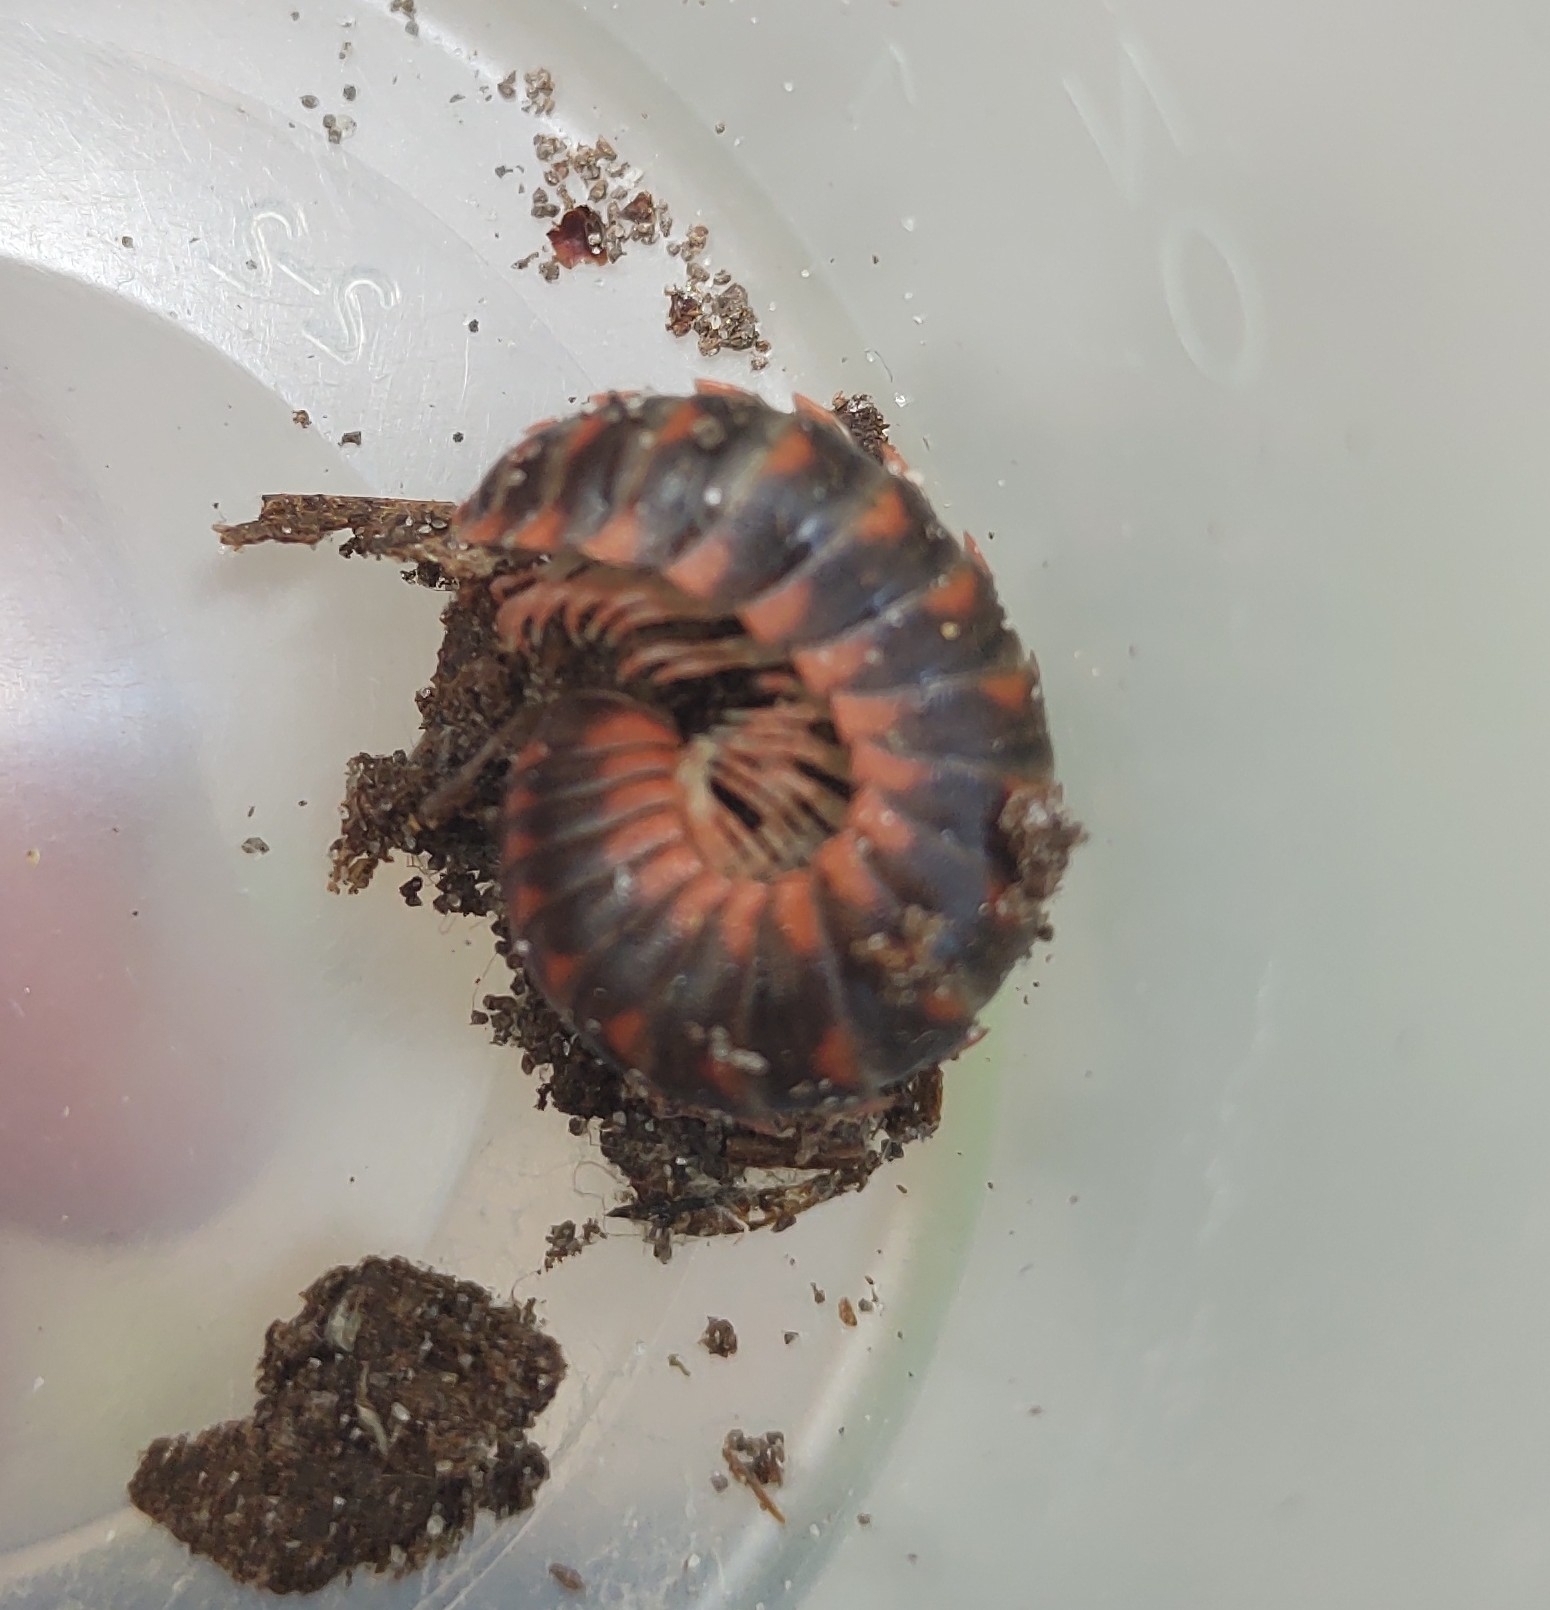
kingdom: Animalia
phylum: Arthropoda
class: Diplopoda
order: Polydesmida
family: Xystodesmidae
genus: Cherokia
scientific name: Cherokia georgiana
